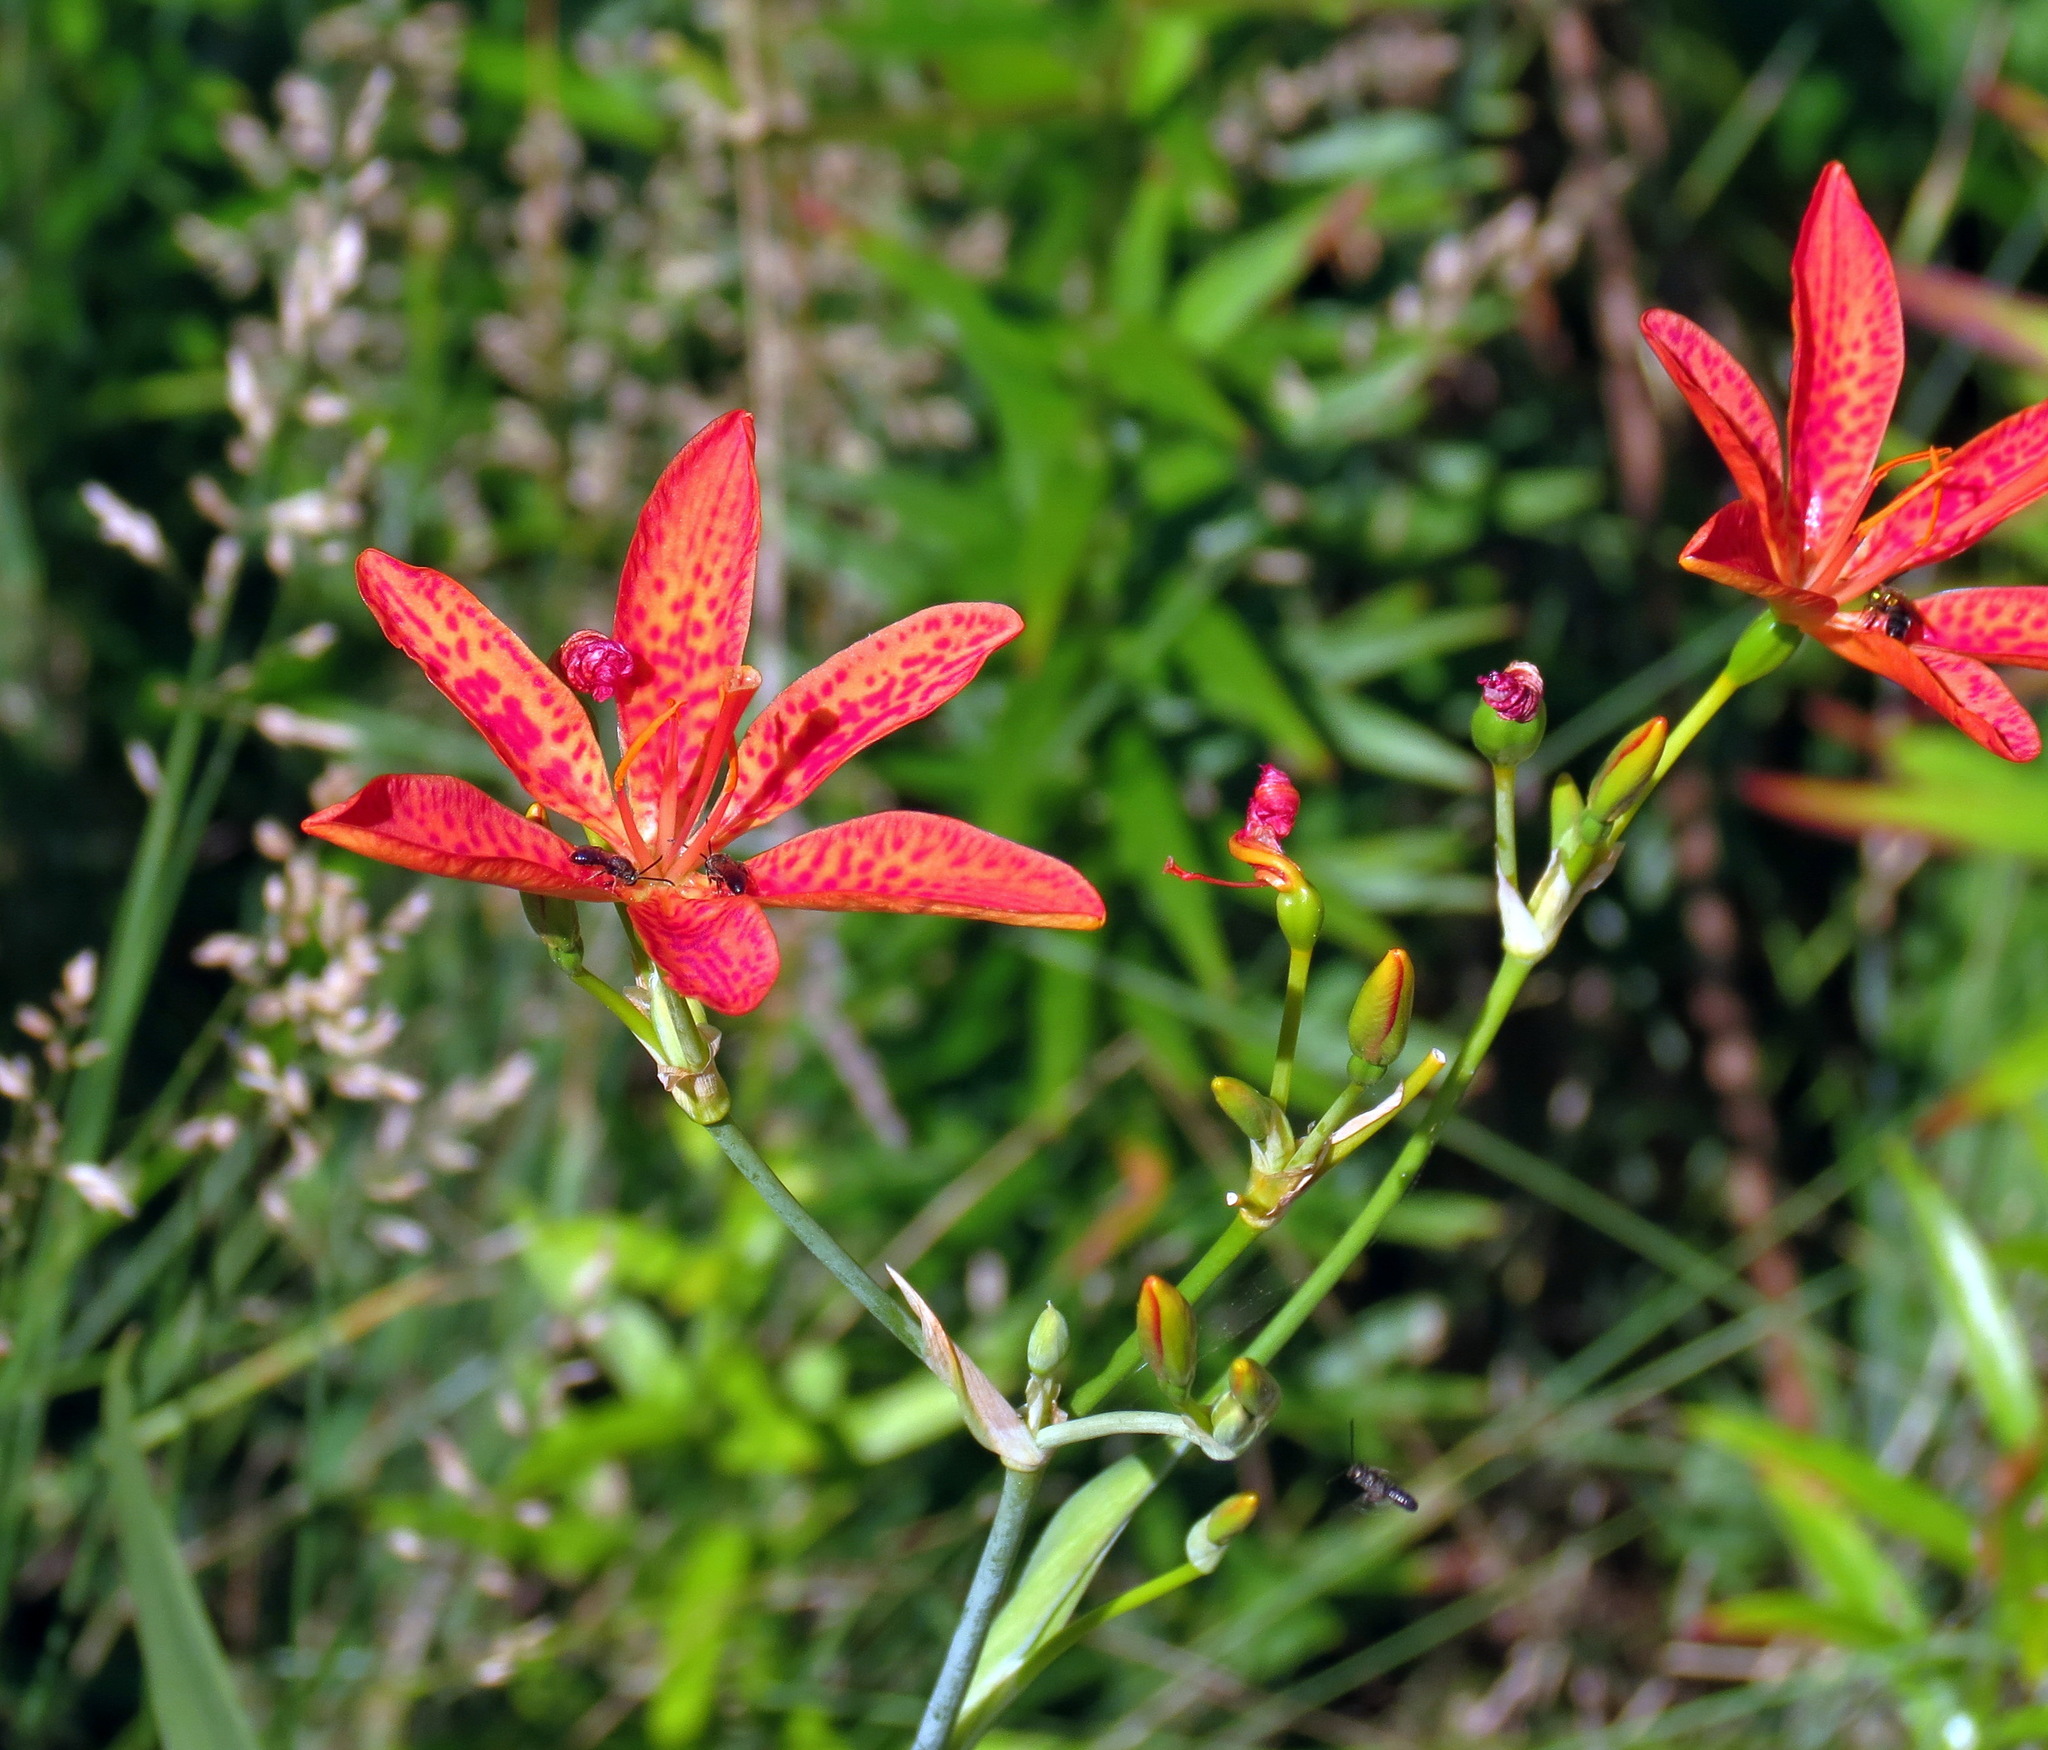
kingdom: Plantae
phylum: Tracheophyta
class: Liliopsida
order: Asparagales
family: Iridaceae
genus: Iris
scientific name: Iris domestica
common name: Belamcanda
